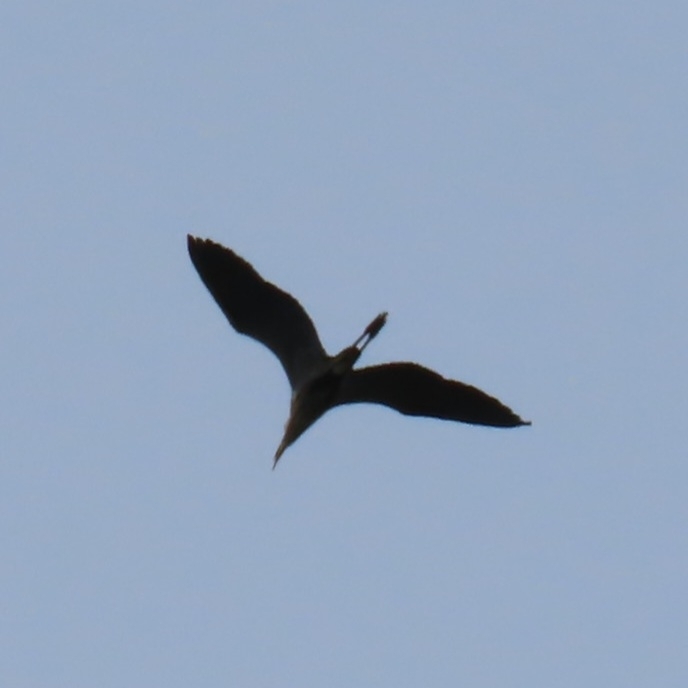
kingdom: Animalia
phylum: Chordata
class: Aves
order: Pelecaniformes
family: Ardeidae
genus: Ardea
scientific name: Ardea herodias
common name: Great blue heron
